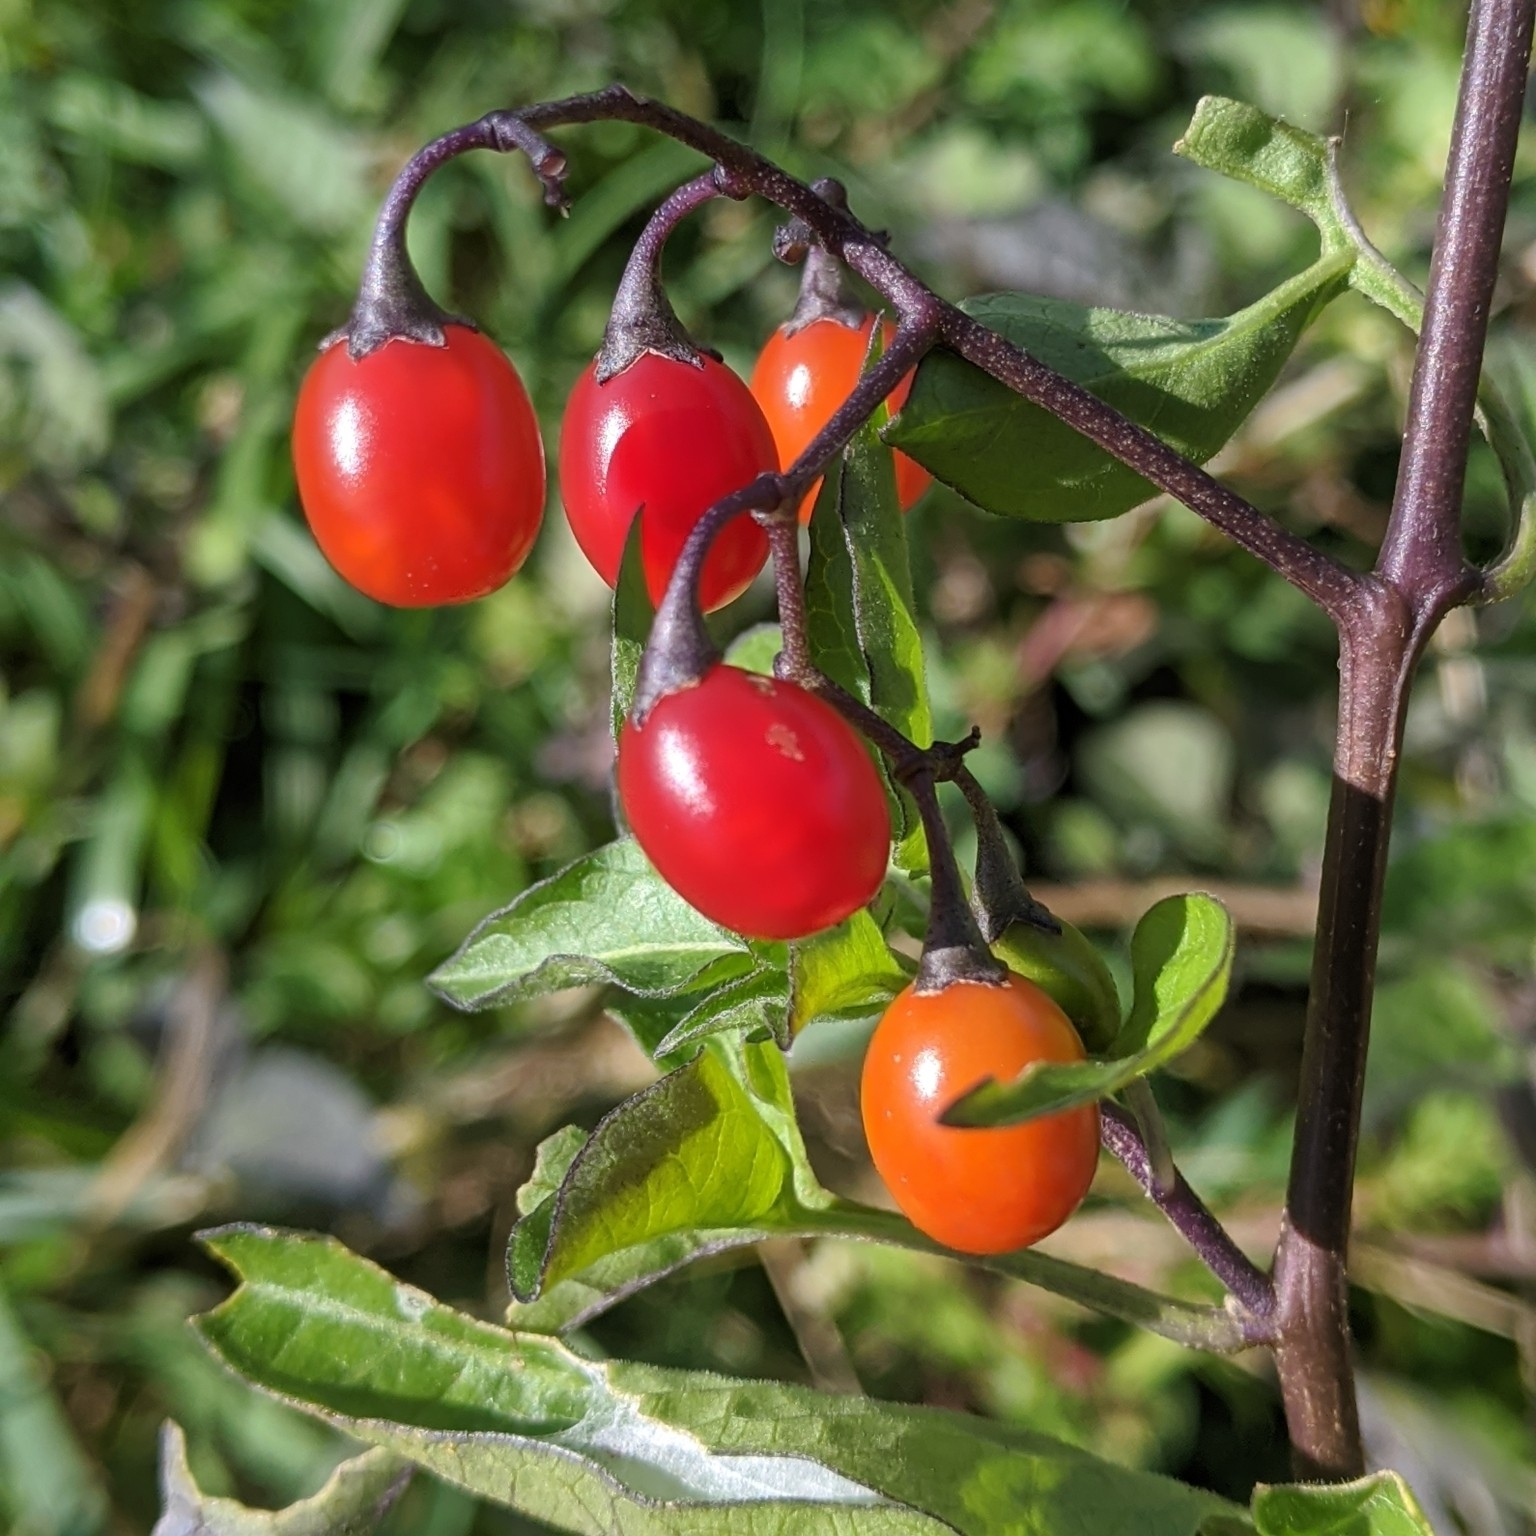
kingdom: Plantae
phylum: Tracheophyta
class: Magnoliopsida
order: Solanales
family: Solanaceae
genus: Solanum
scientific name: Solanum dulcamara
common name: Climbing nightshade
